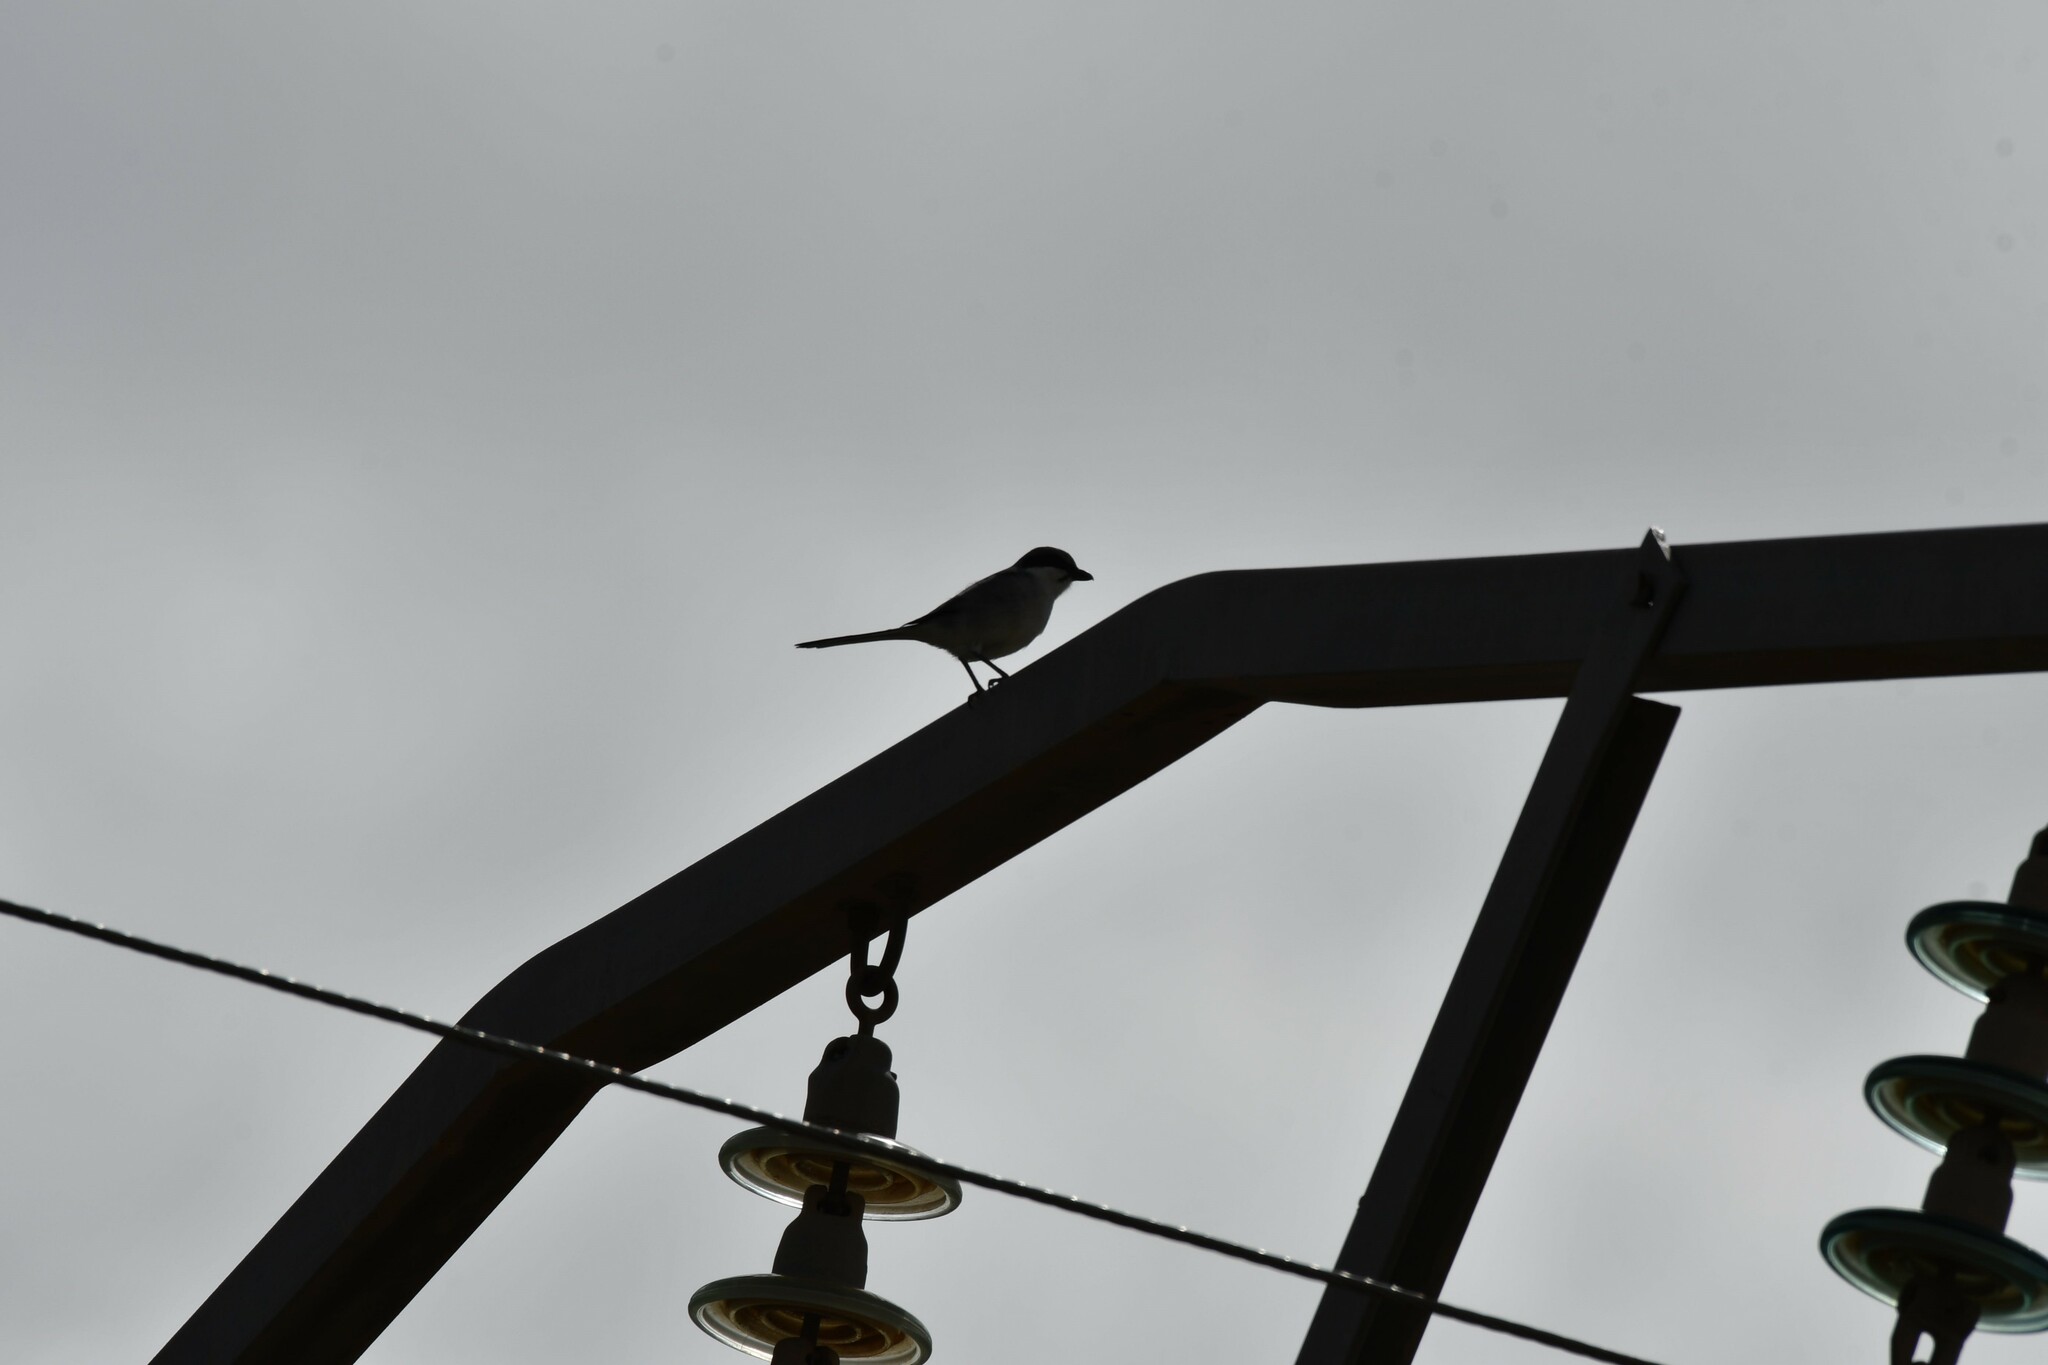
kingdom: Animalia
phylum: Chordata
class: Aves
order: Passeriformes
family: Laniidae
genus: Lanius
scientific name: Lanius excubitor
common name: Great grey shrike
